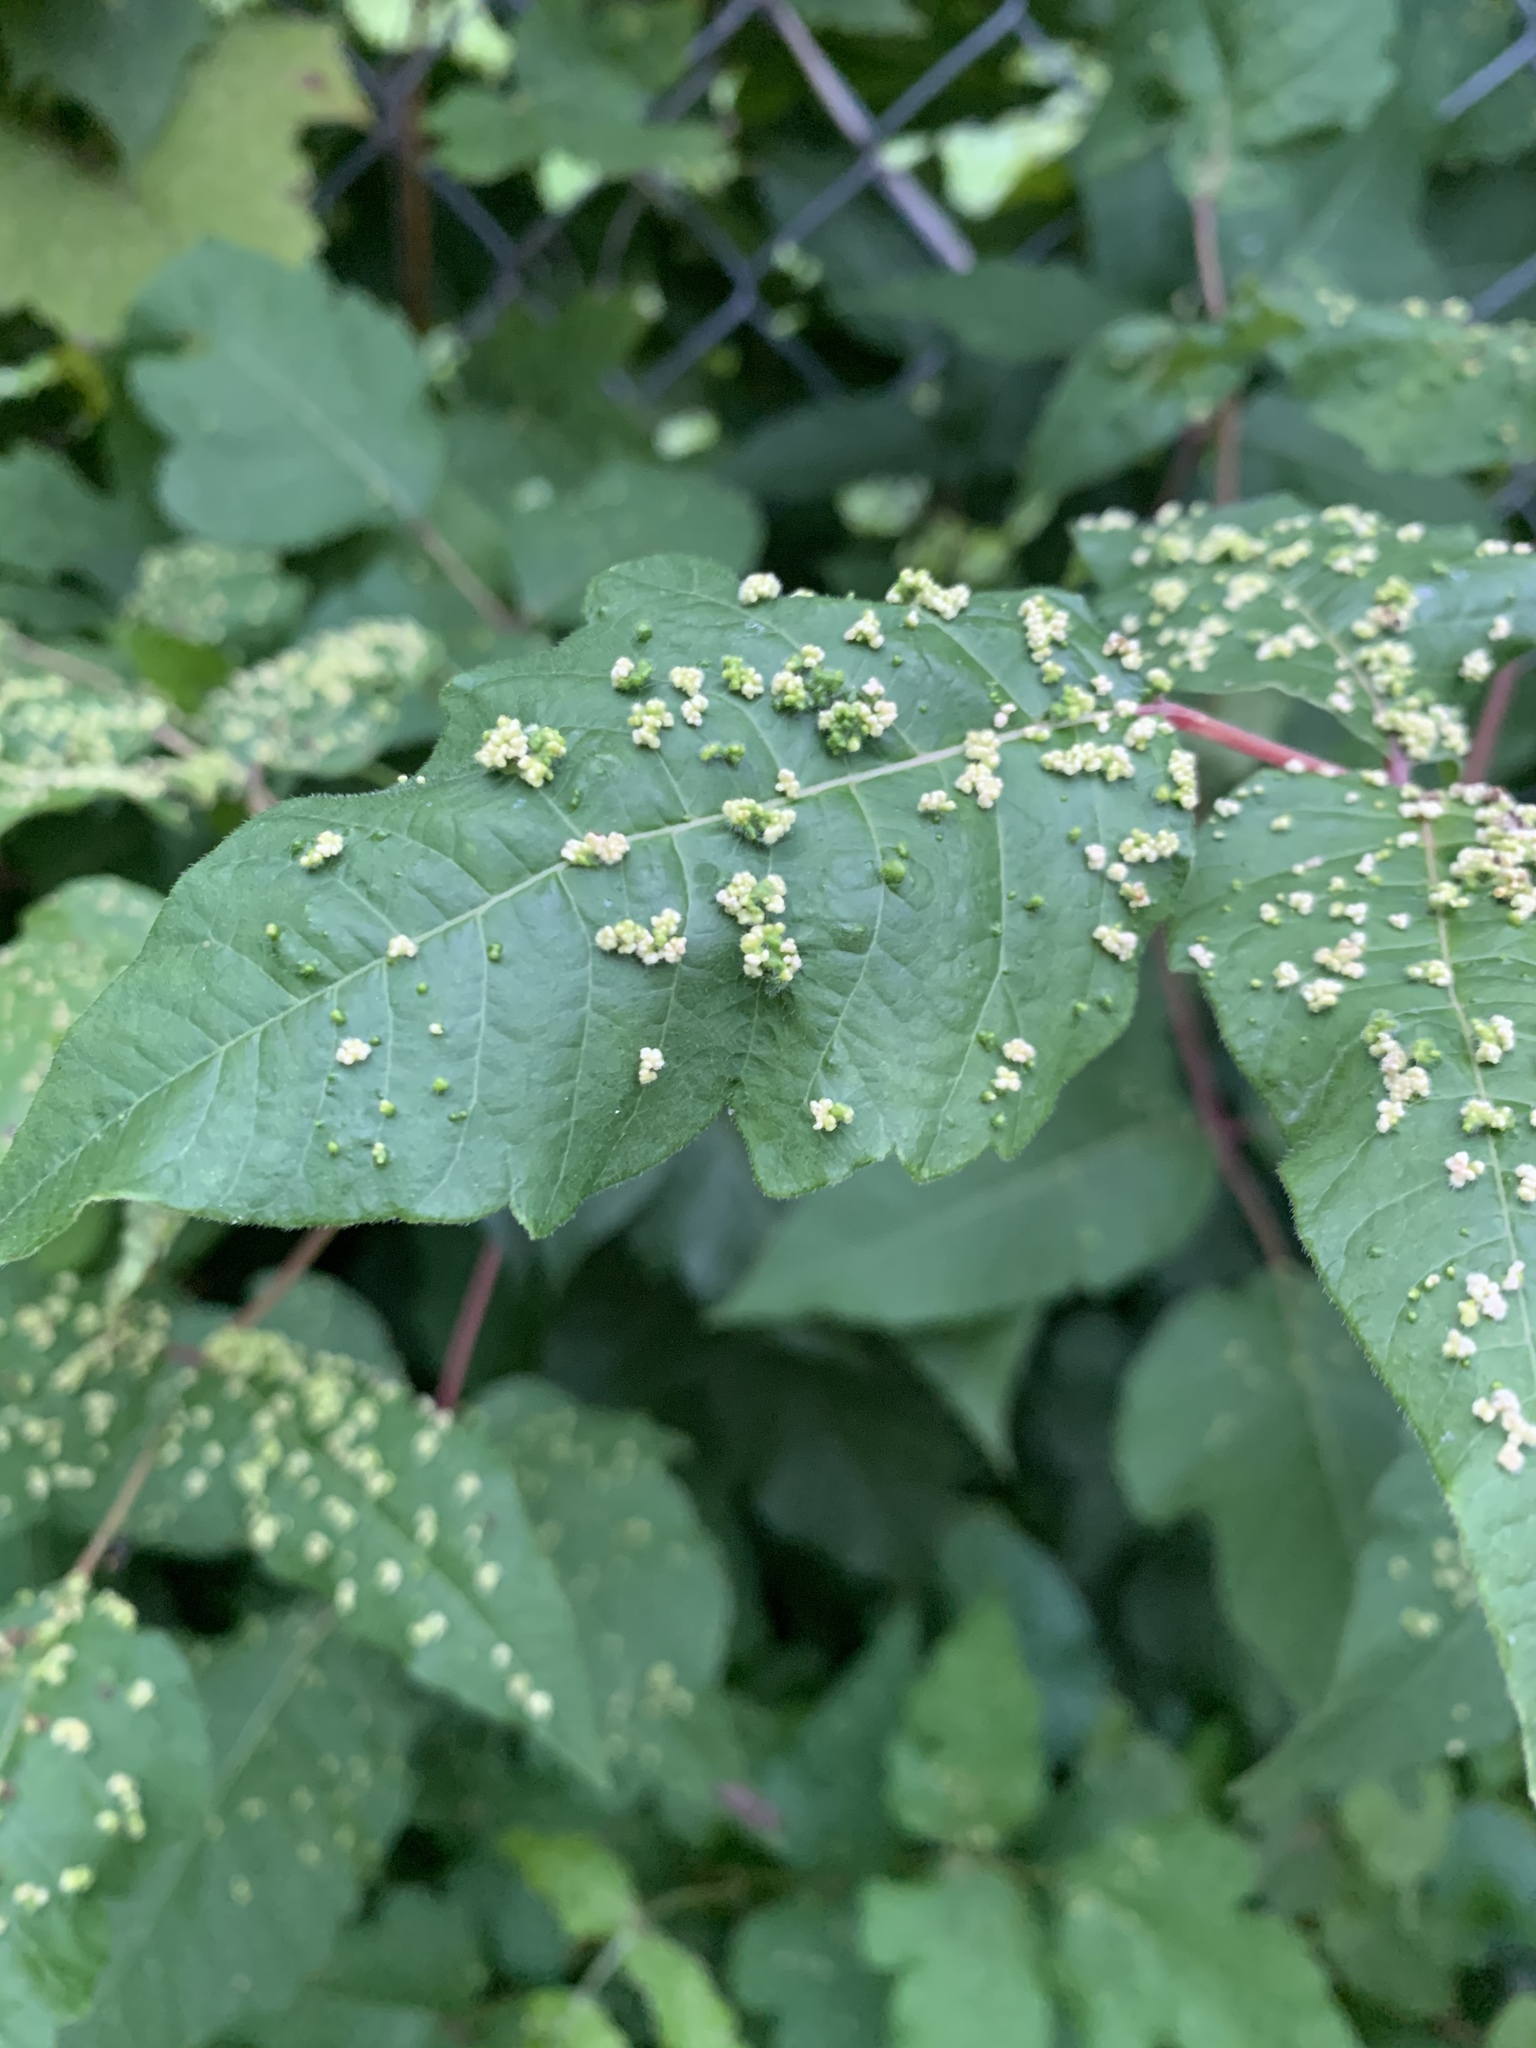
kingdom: Animalia
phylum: Arthropoda
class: Arachnida
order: Trombidiformes
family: Eriophyidae
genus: Aculops
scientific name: Aculops
